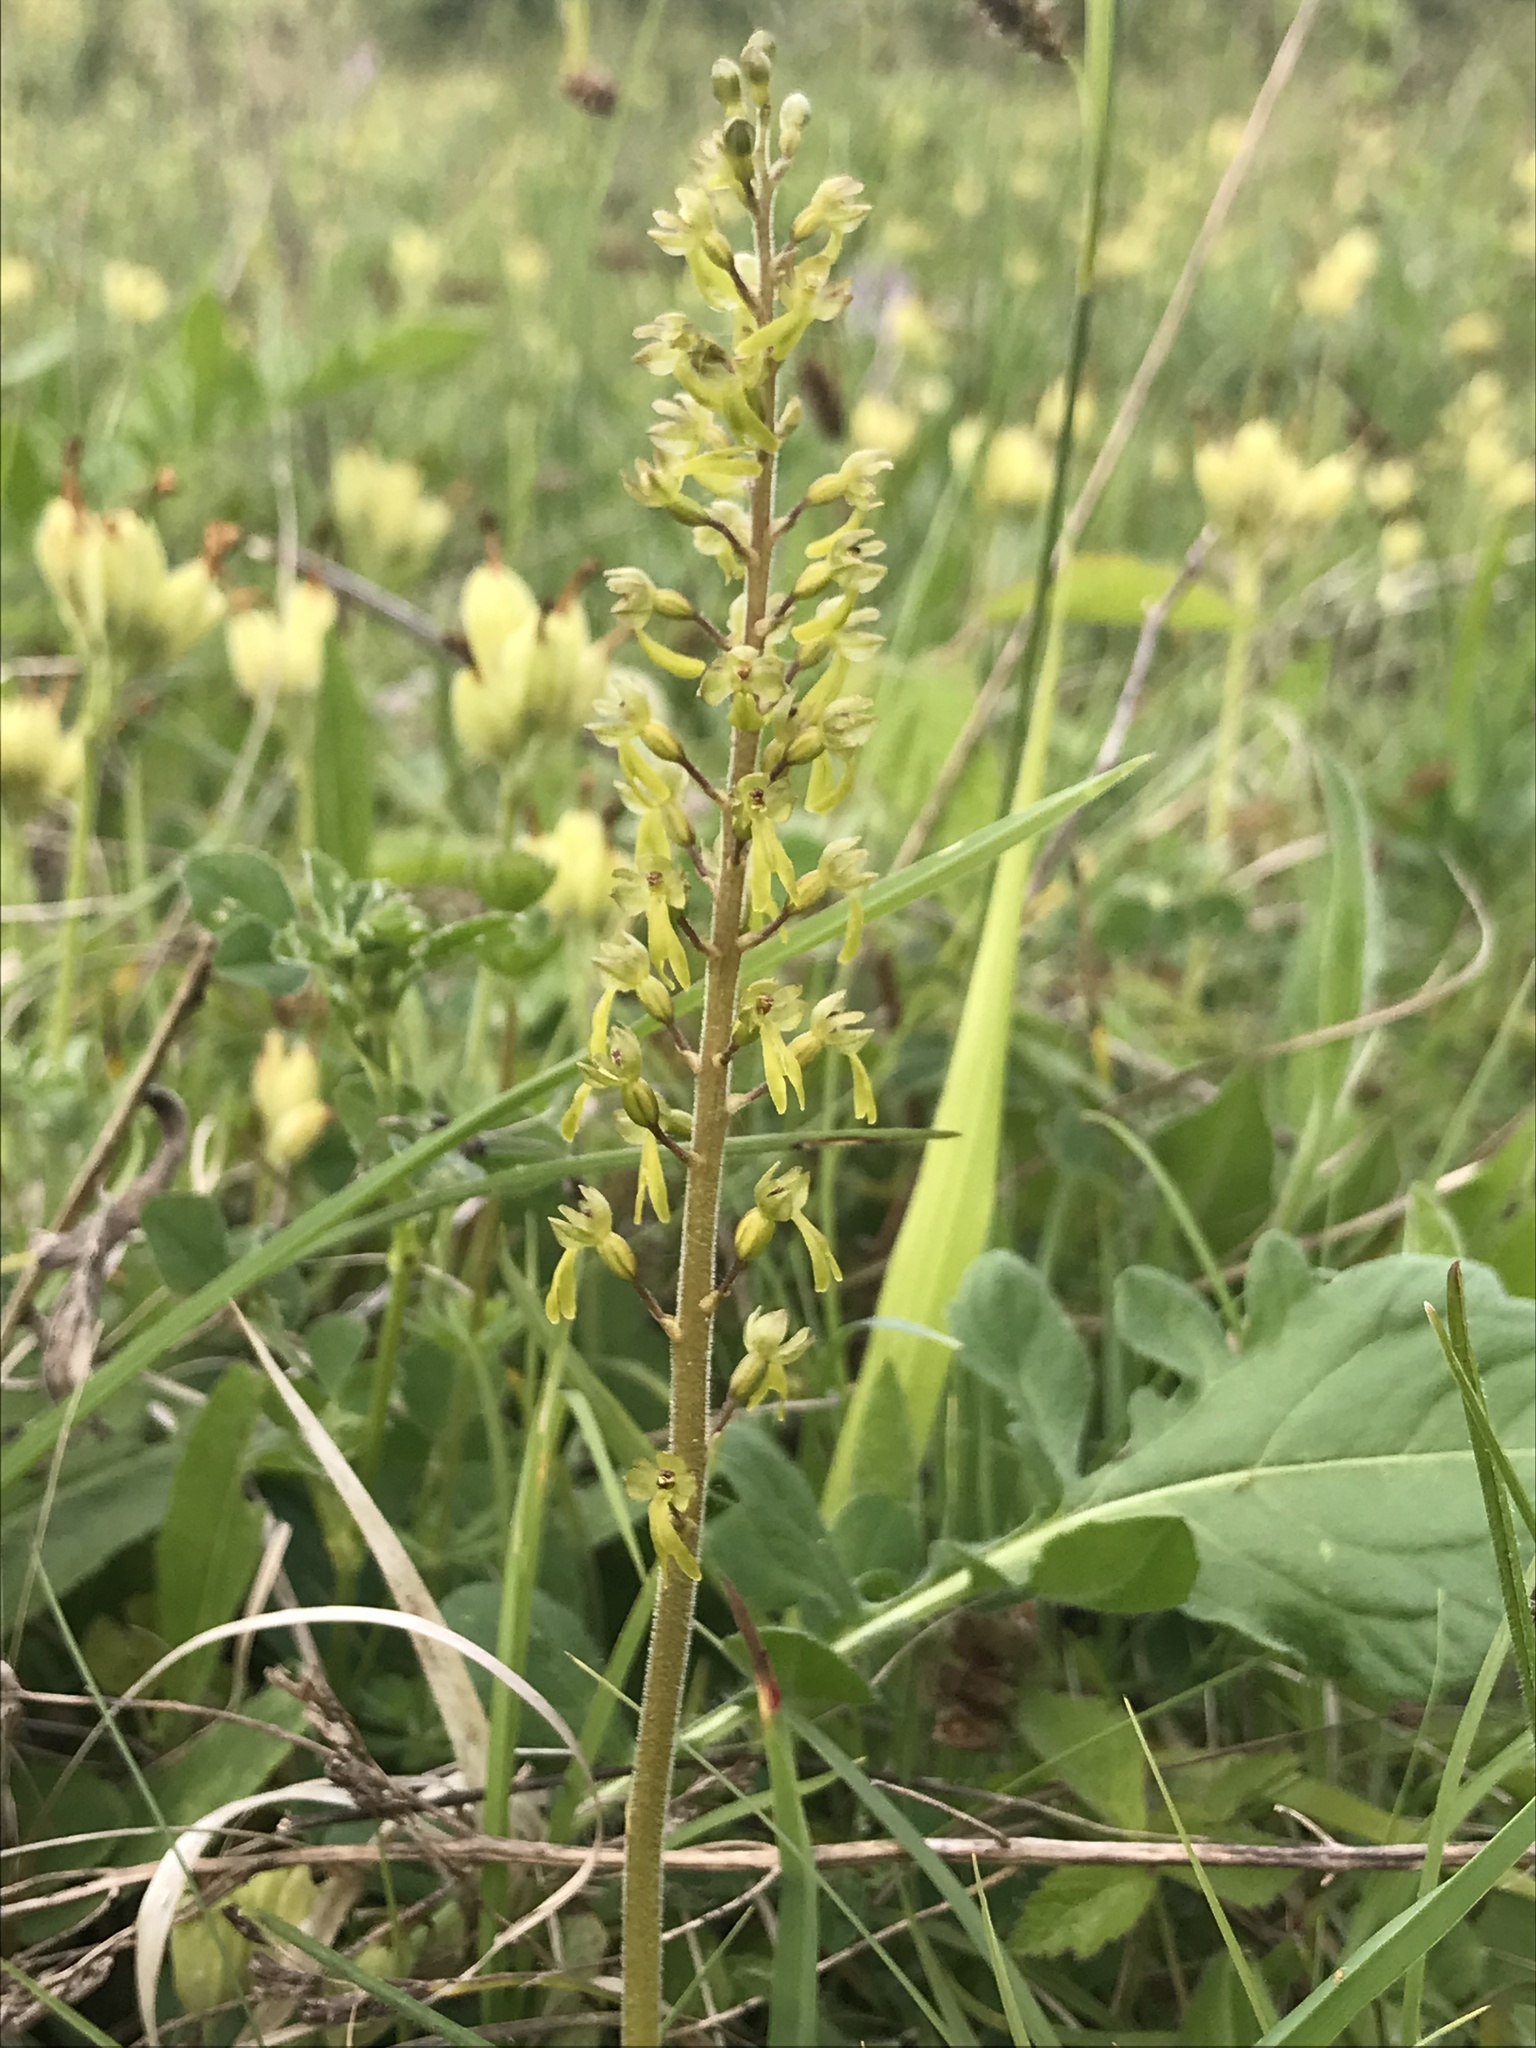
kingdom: Plantae
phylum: Tracheophyta
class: Liliopsida
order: Asparagales
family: Orchidaceae
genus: Neottia
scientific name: Neottia ovata
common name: Common twayblade
